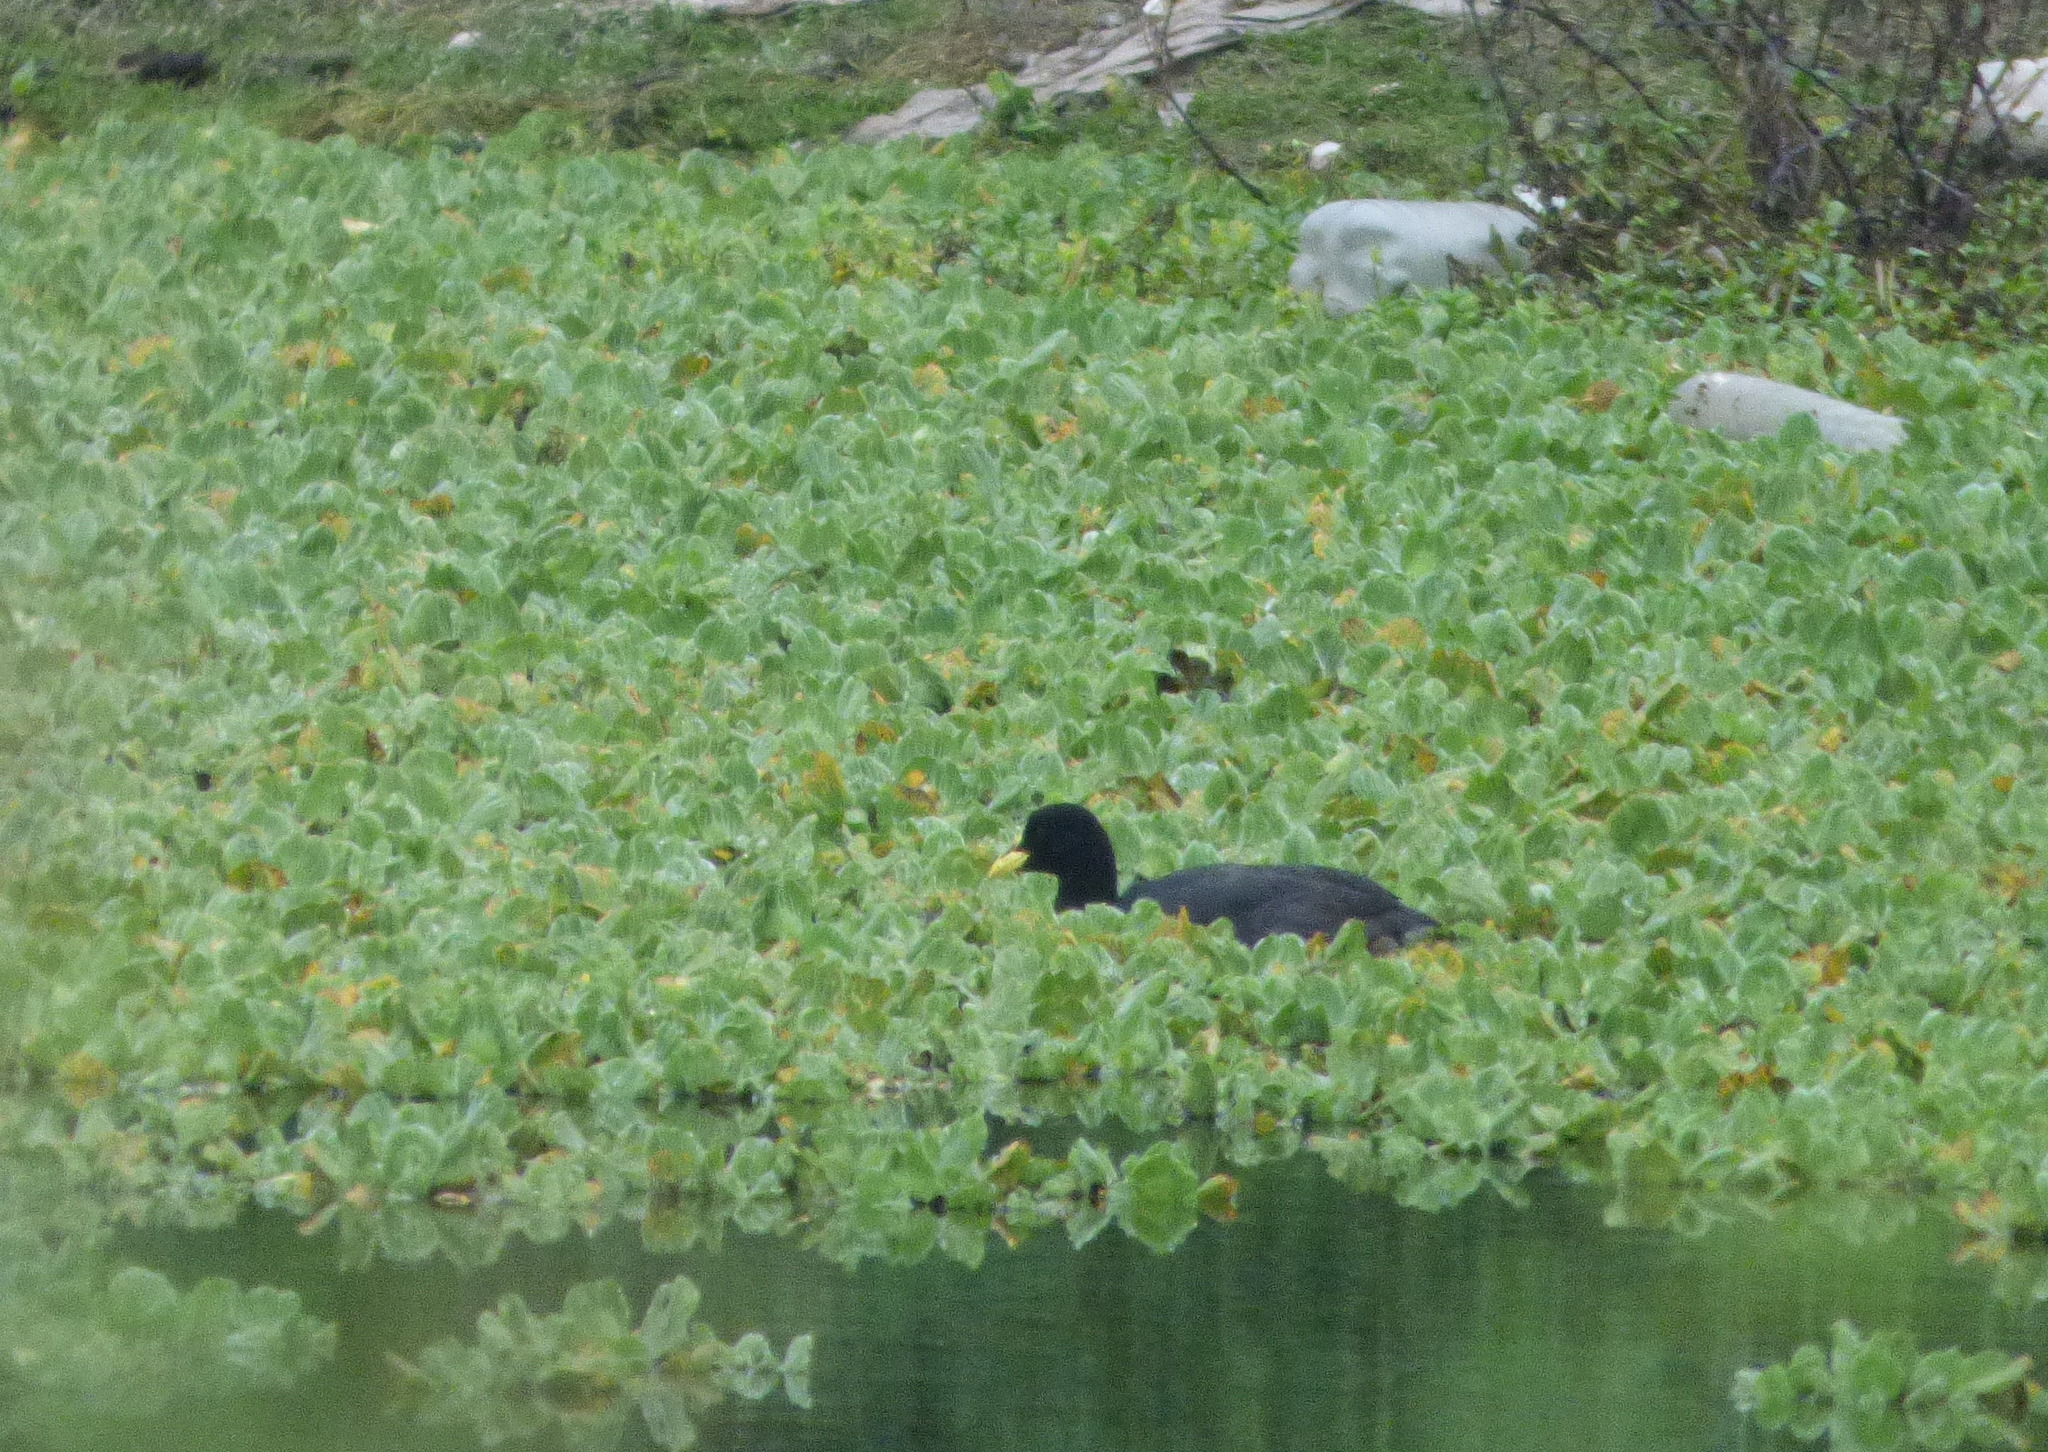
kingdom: Animalia
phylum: Chordata
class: Aves
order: Gruiformes
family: Rallidae
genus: Fulica
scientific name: Fulica armillata
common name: Red-gartered coot
